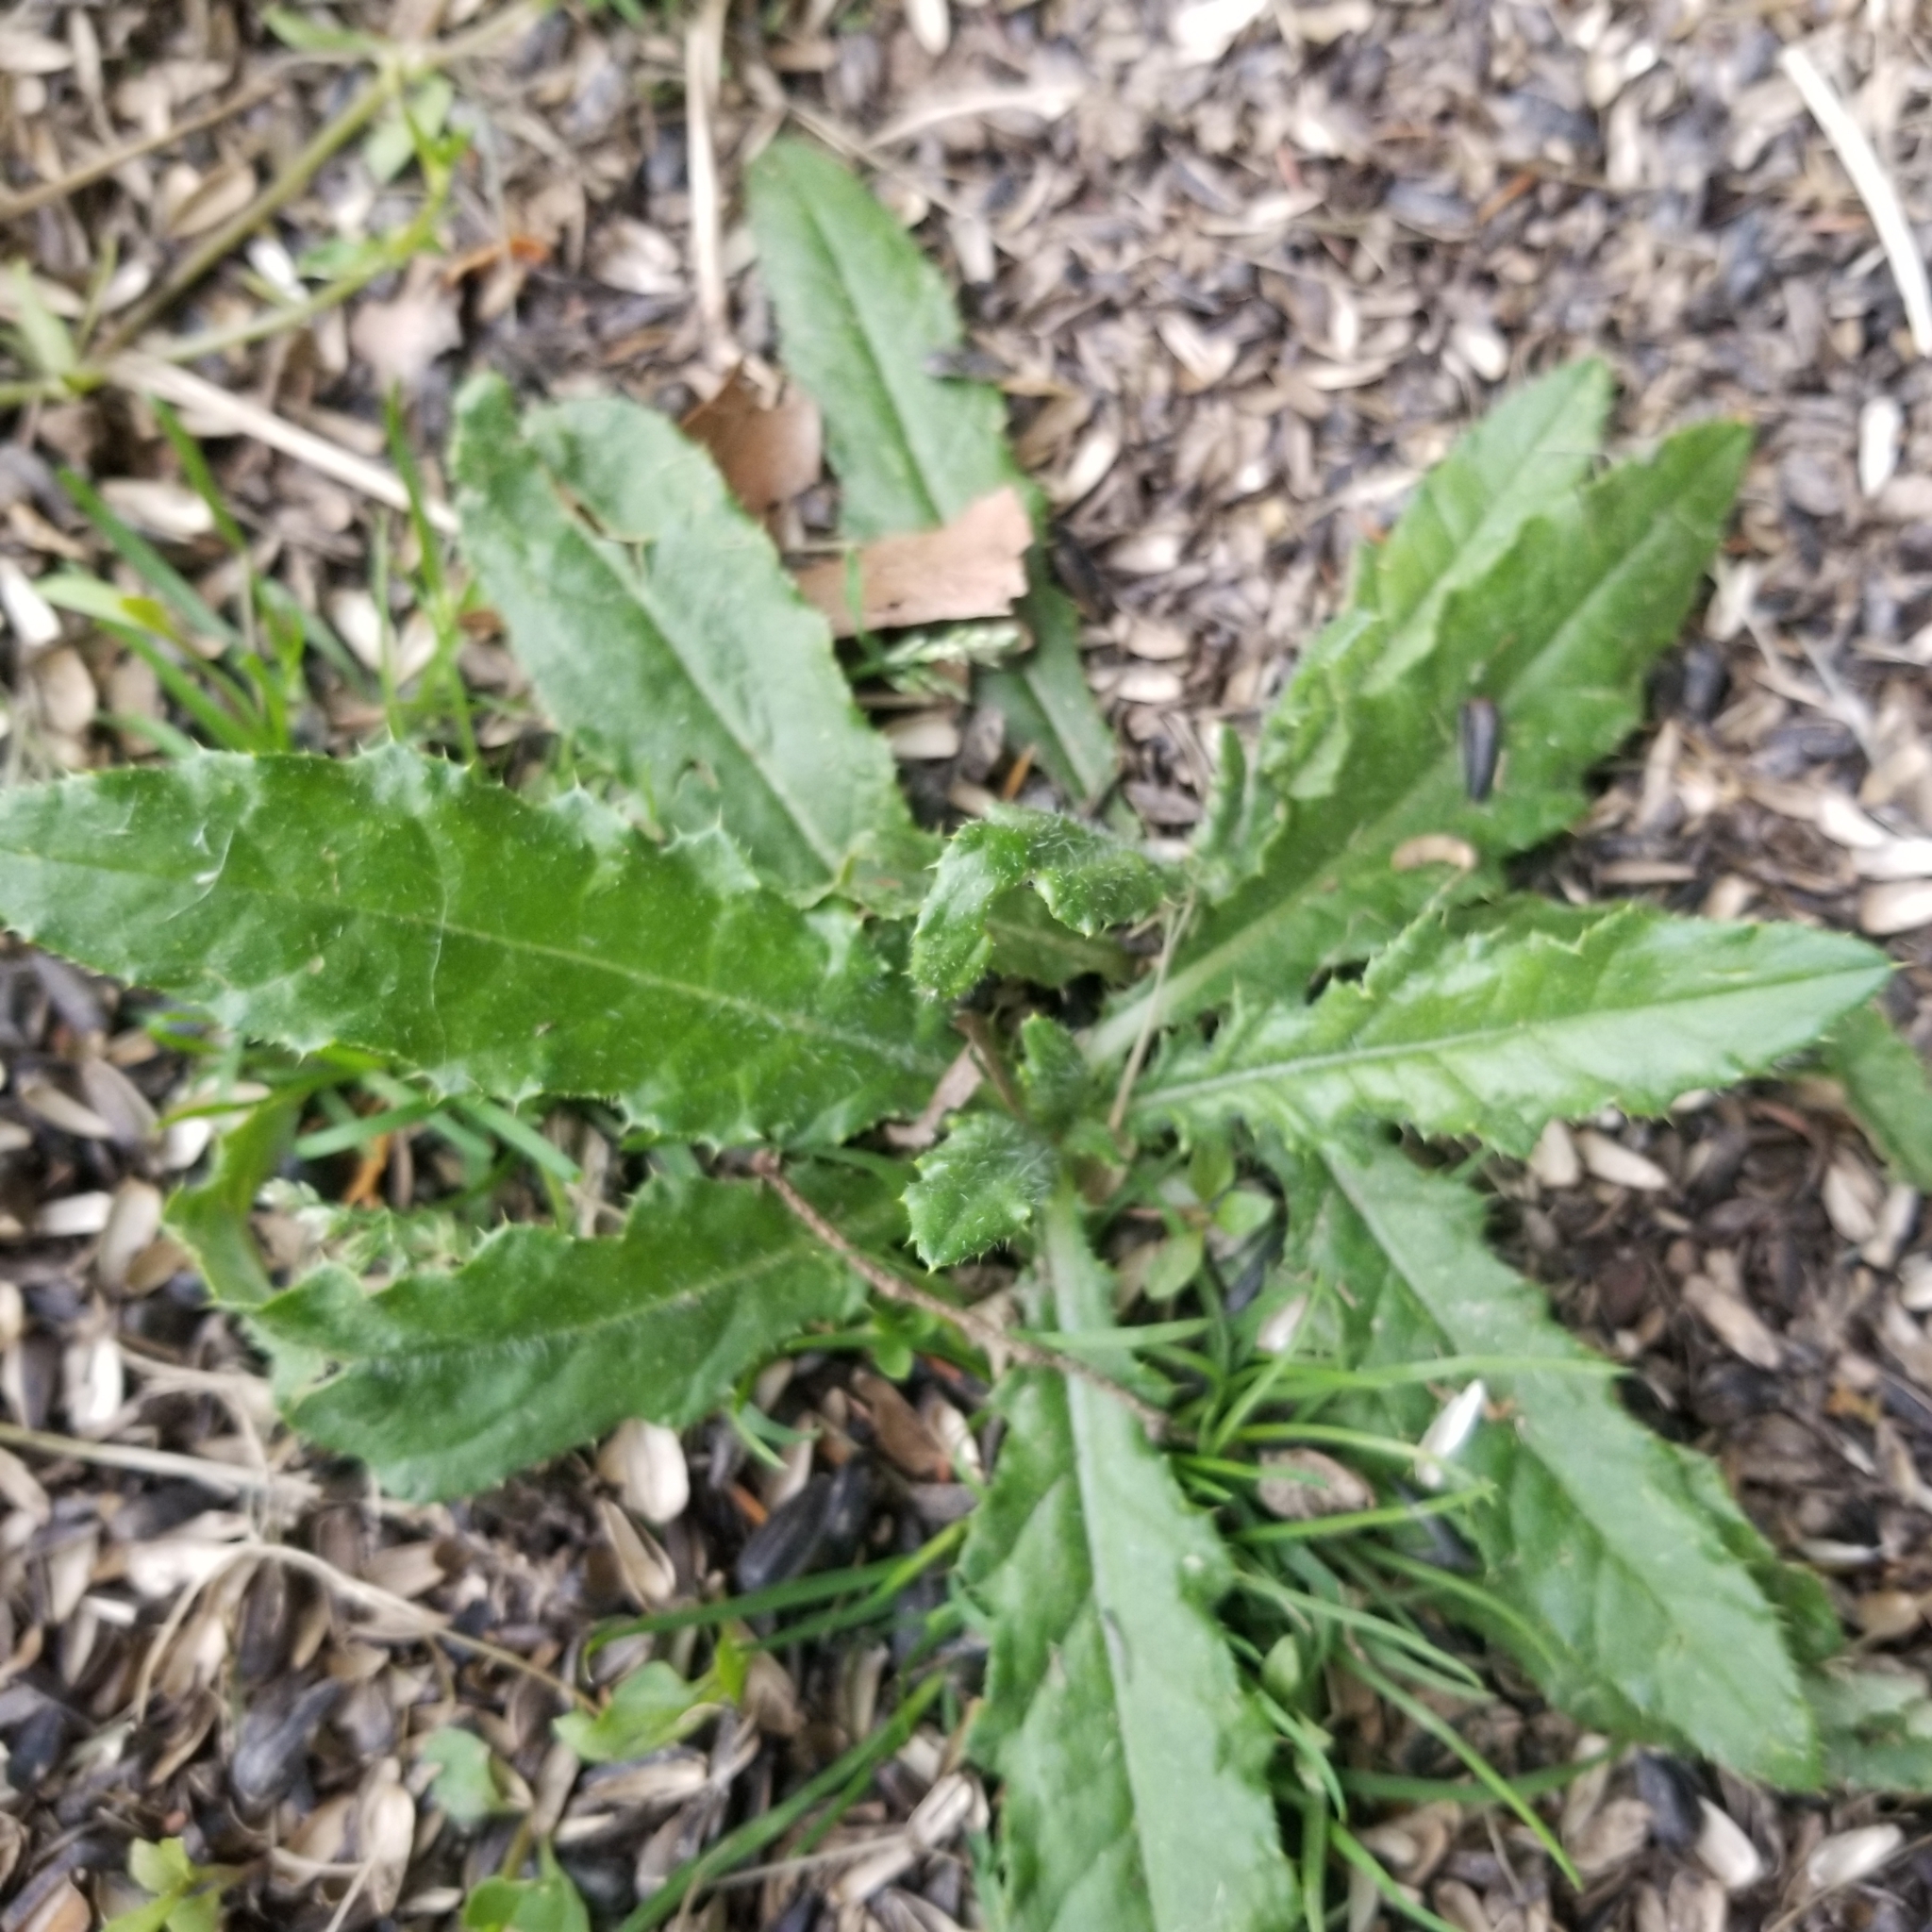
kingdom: Plantae
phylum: Tracheophyta
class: Magnoliopsida
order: Asterales
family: Asteraceae
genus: Cirsium
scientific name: Cirsium arvense
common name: Creeping thistle
